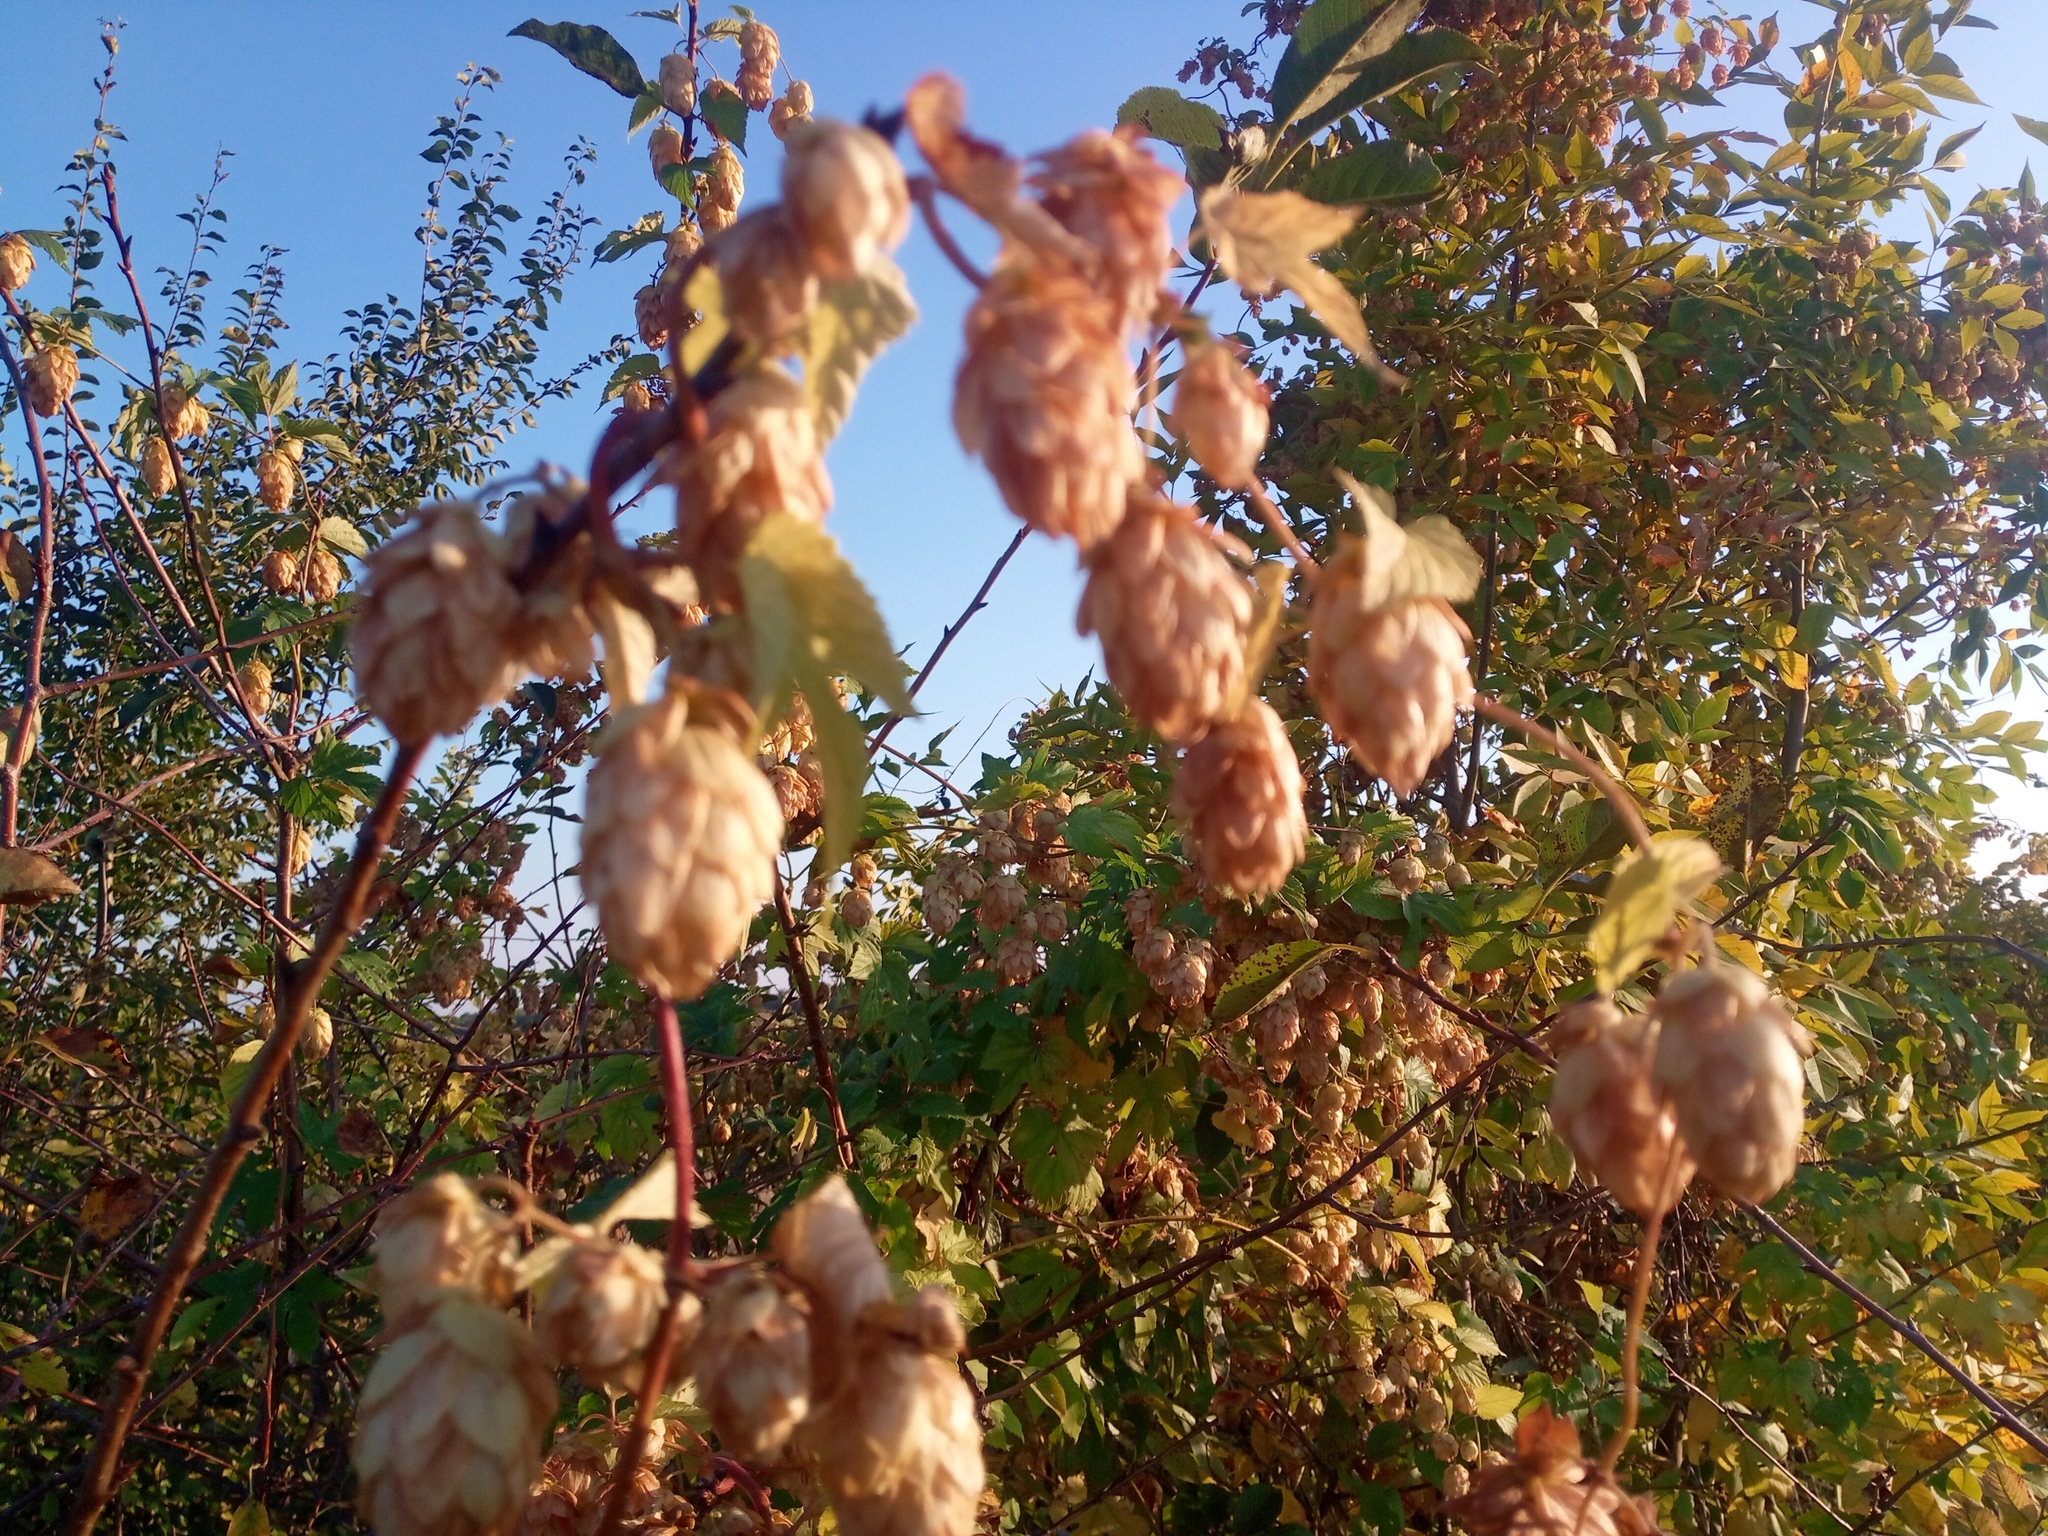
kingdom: Plantae
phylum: Tracheophyta
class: Magnoliopsida
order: Rosales
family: Cannabaceae
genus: Humulus
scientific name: Humulus lupulus
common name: Hop
